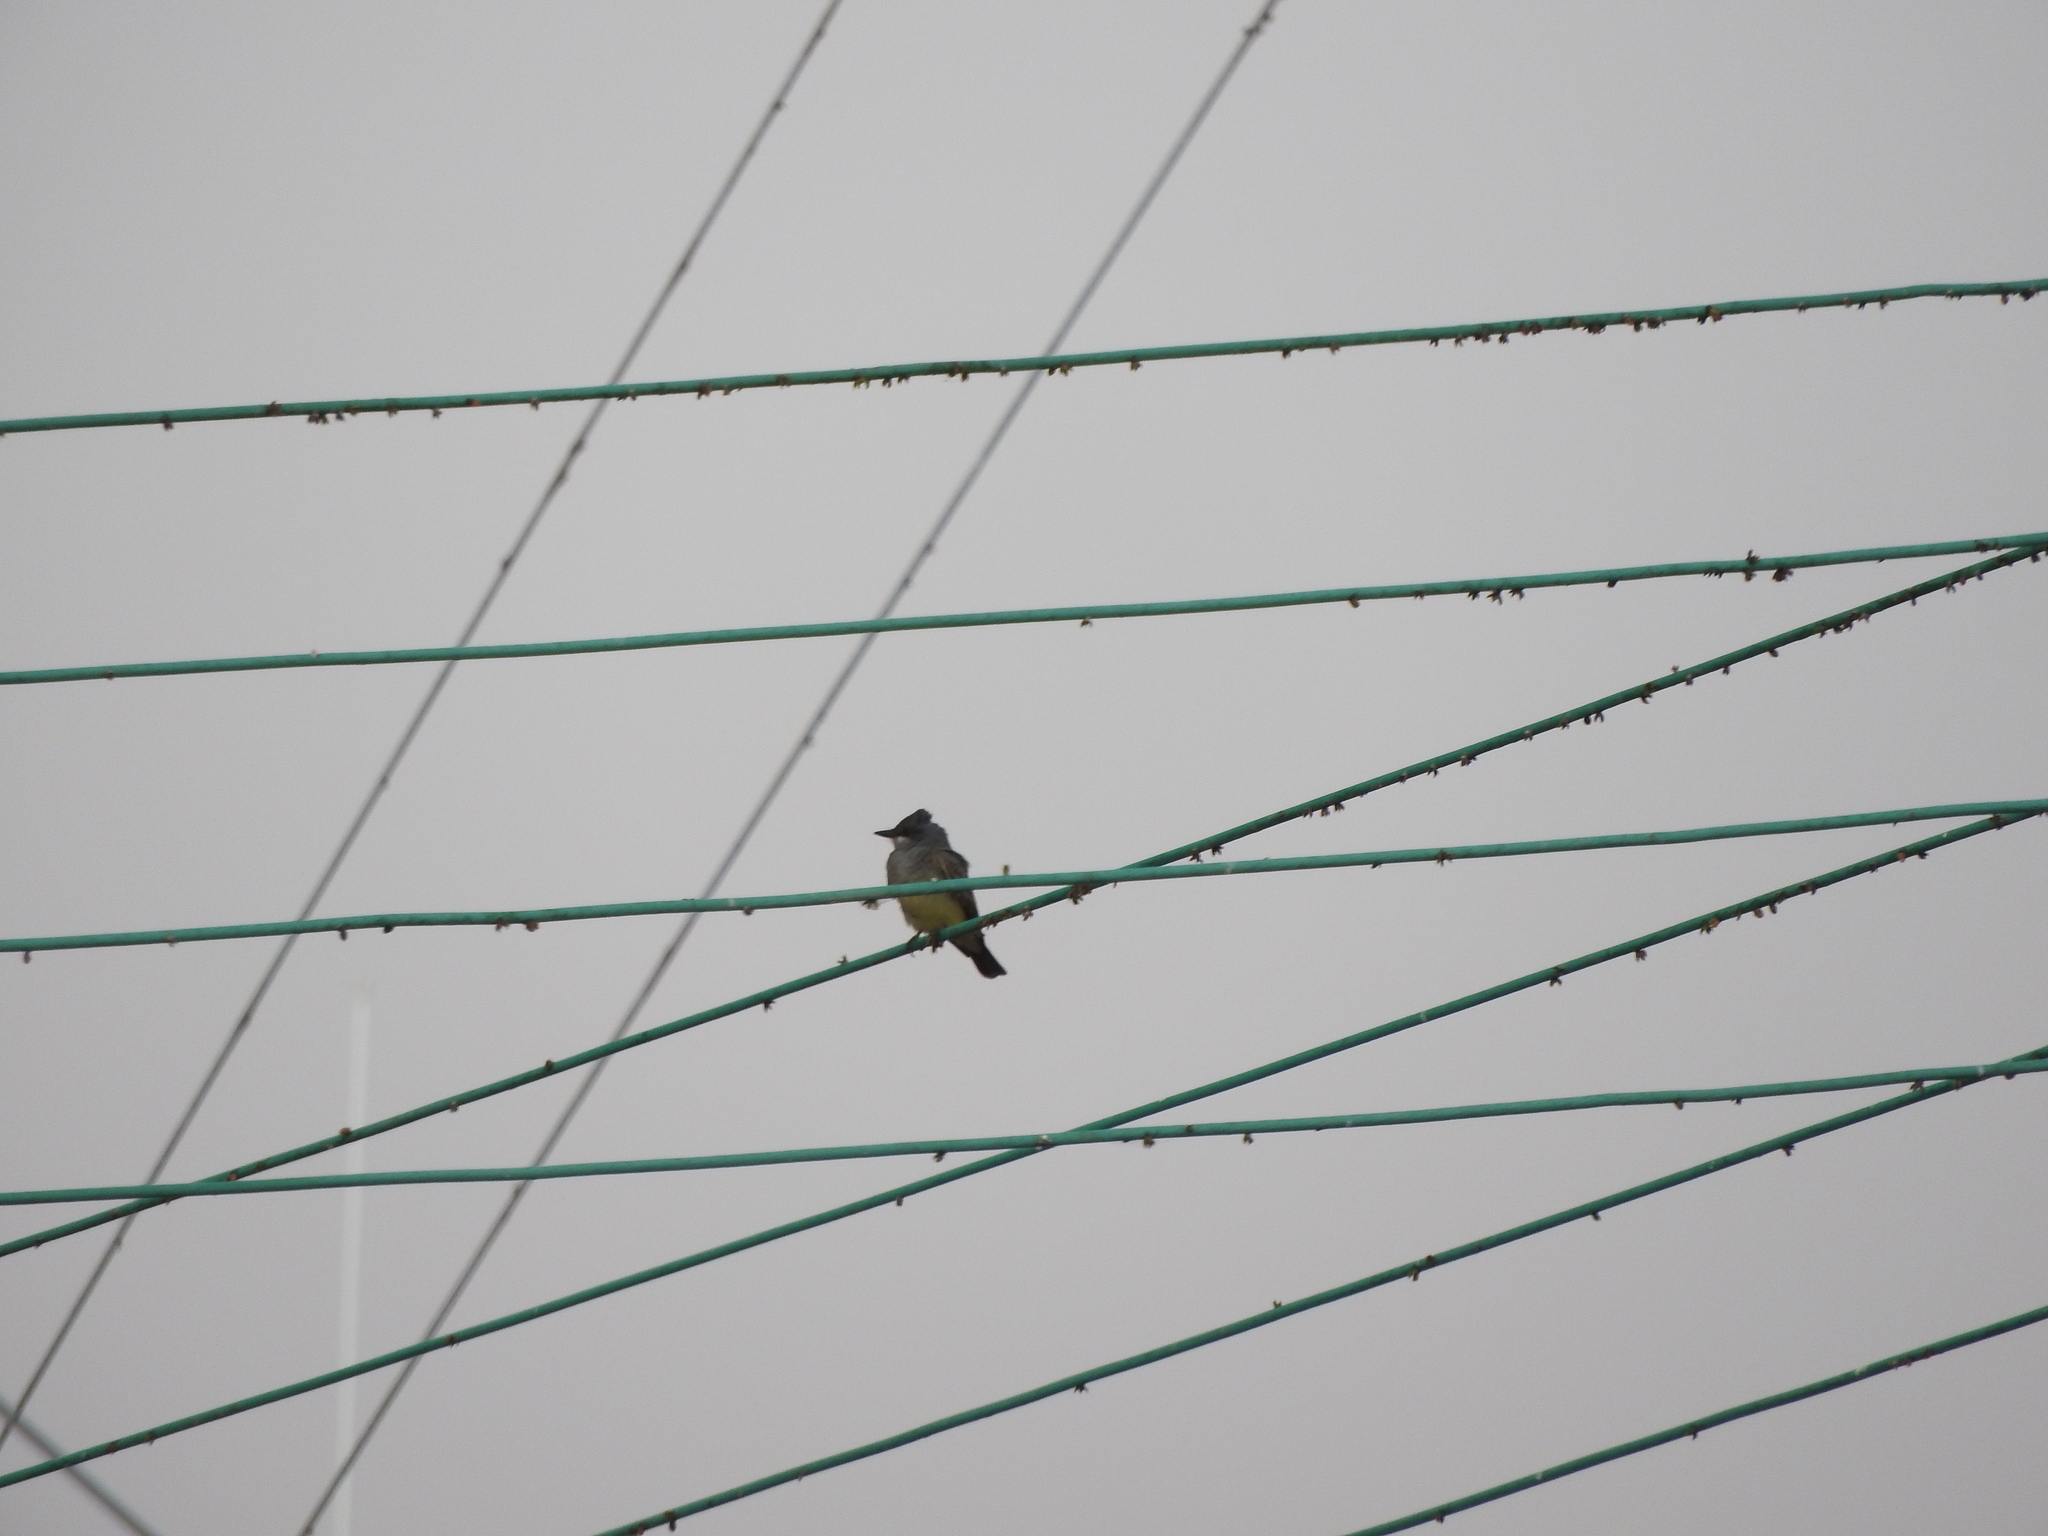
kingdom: Animalia
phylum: Chordata
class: Aves
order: Passeriformes
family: Tyrannidae
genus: Tyrannus
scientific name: Tyrannus vociferans
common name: Cassin's kingbird
